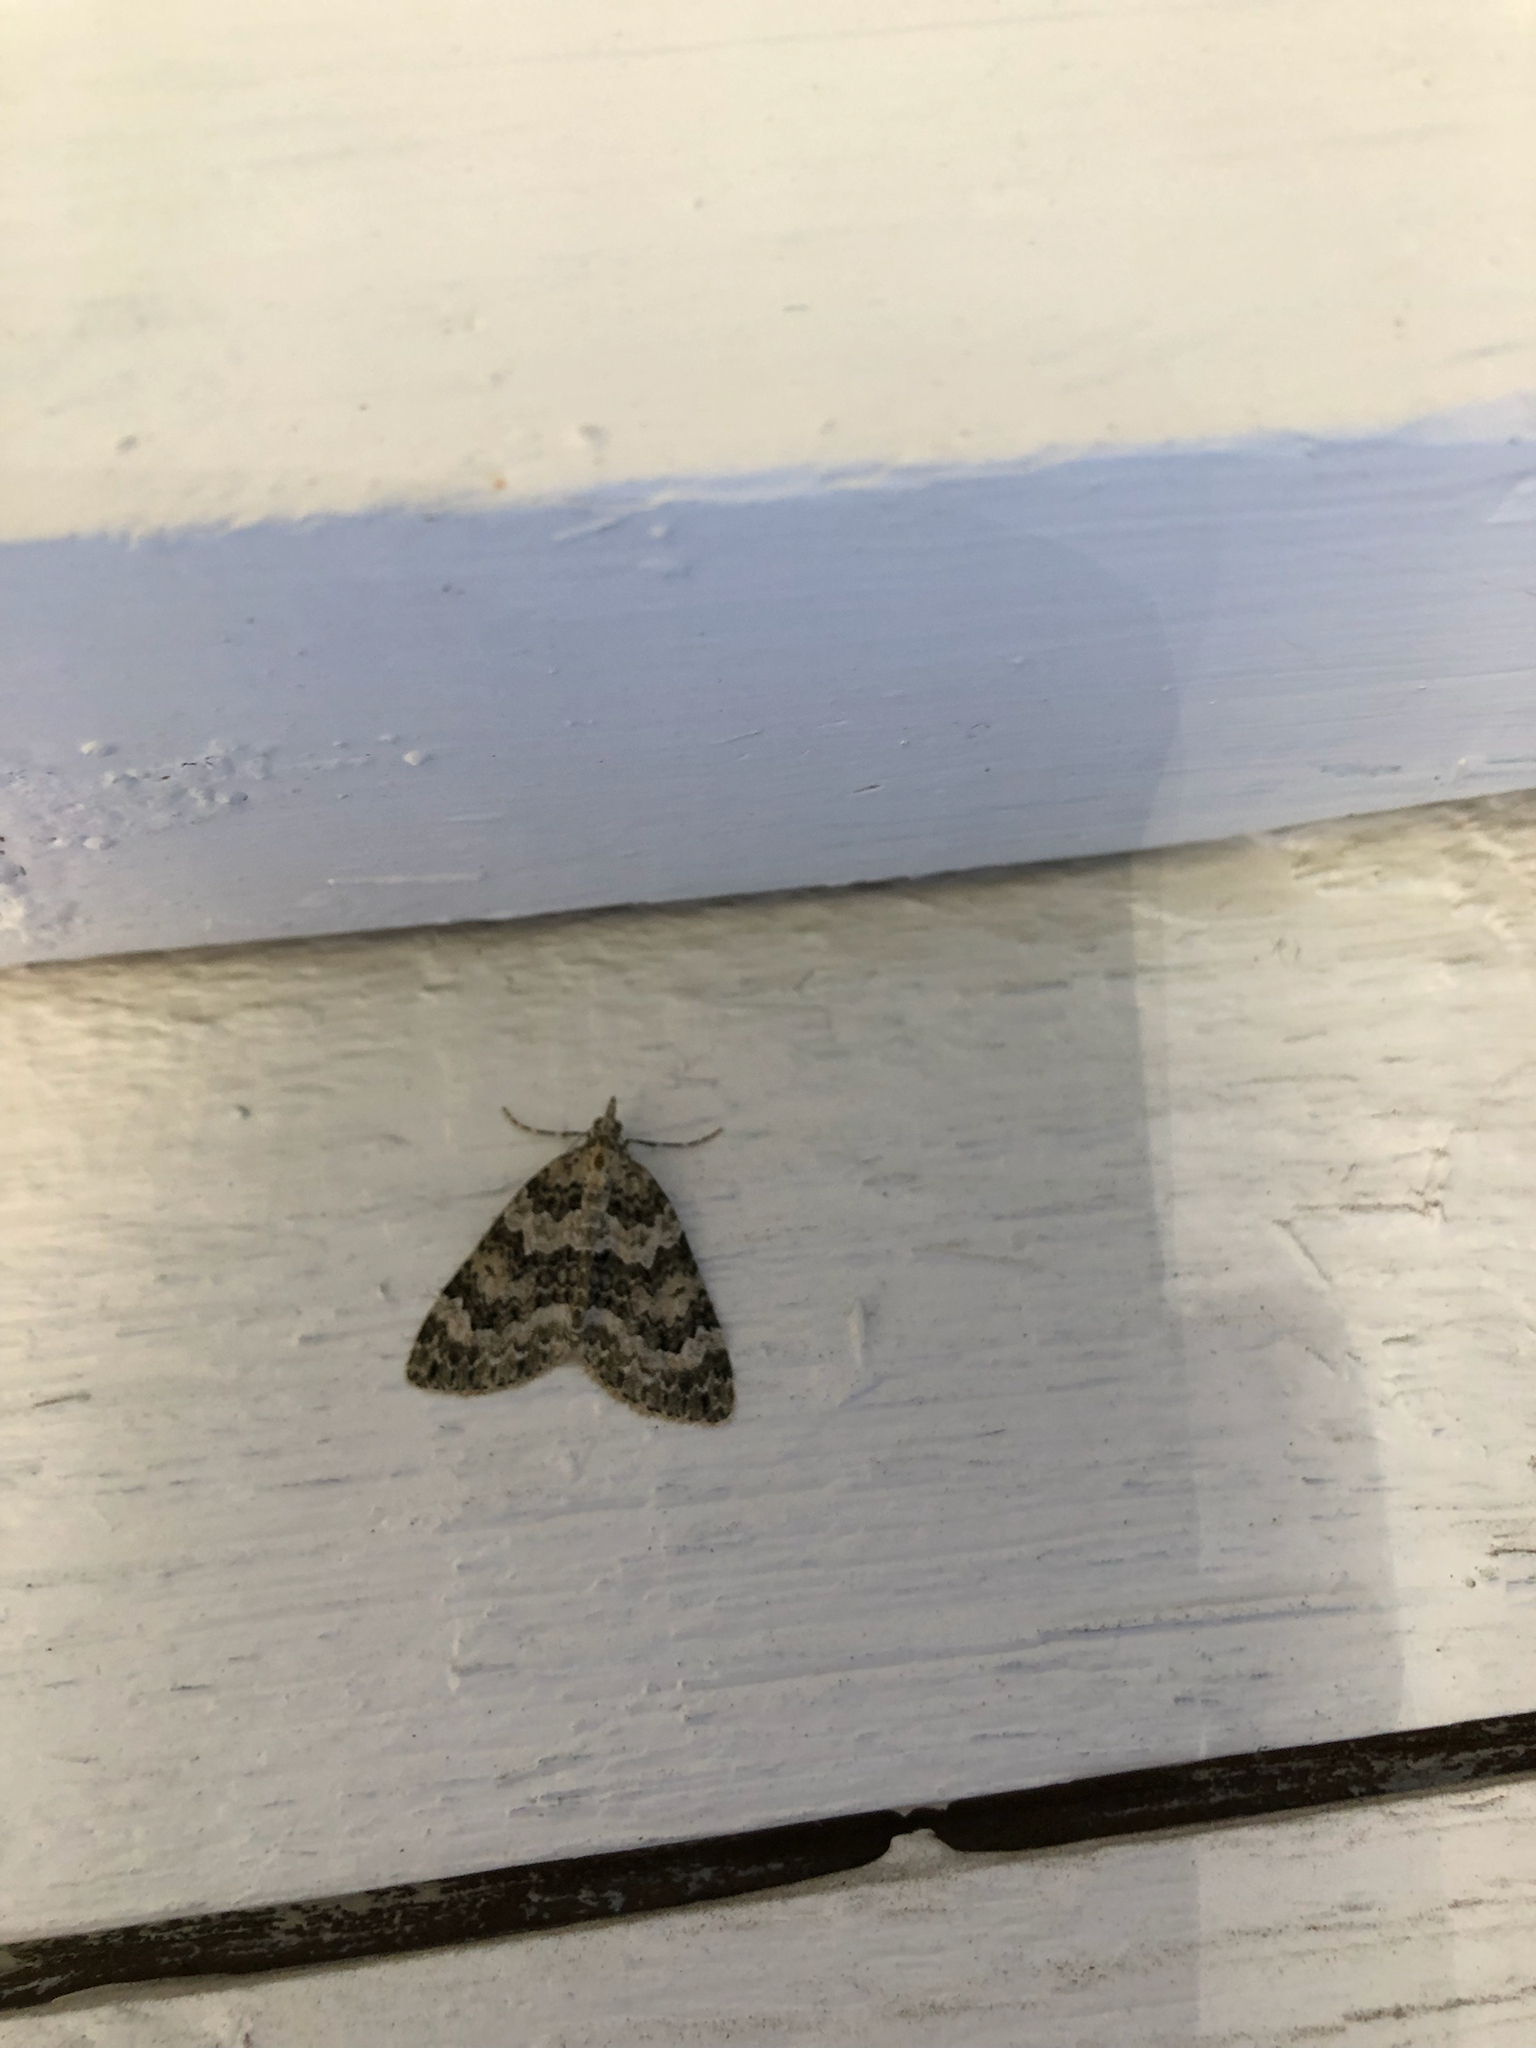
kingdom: Animalia
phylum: Arthropoda
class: Insecta
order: Lepidoptera
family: Geometridae
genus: Chloroclysta
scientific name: Chloroclysta miata
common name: Autumn green carpet
